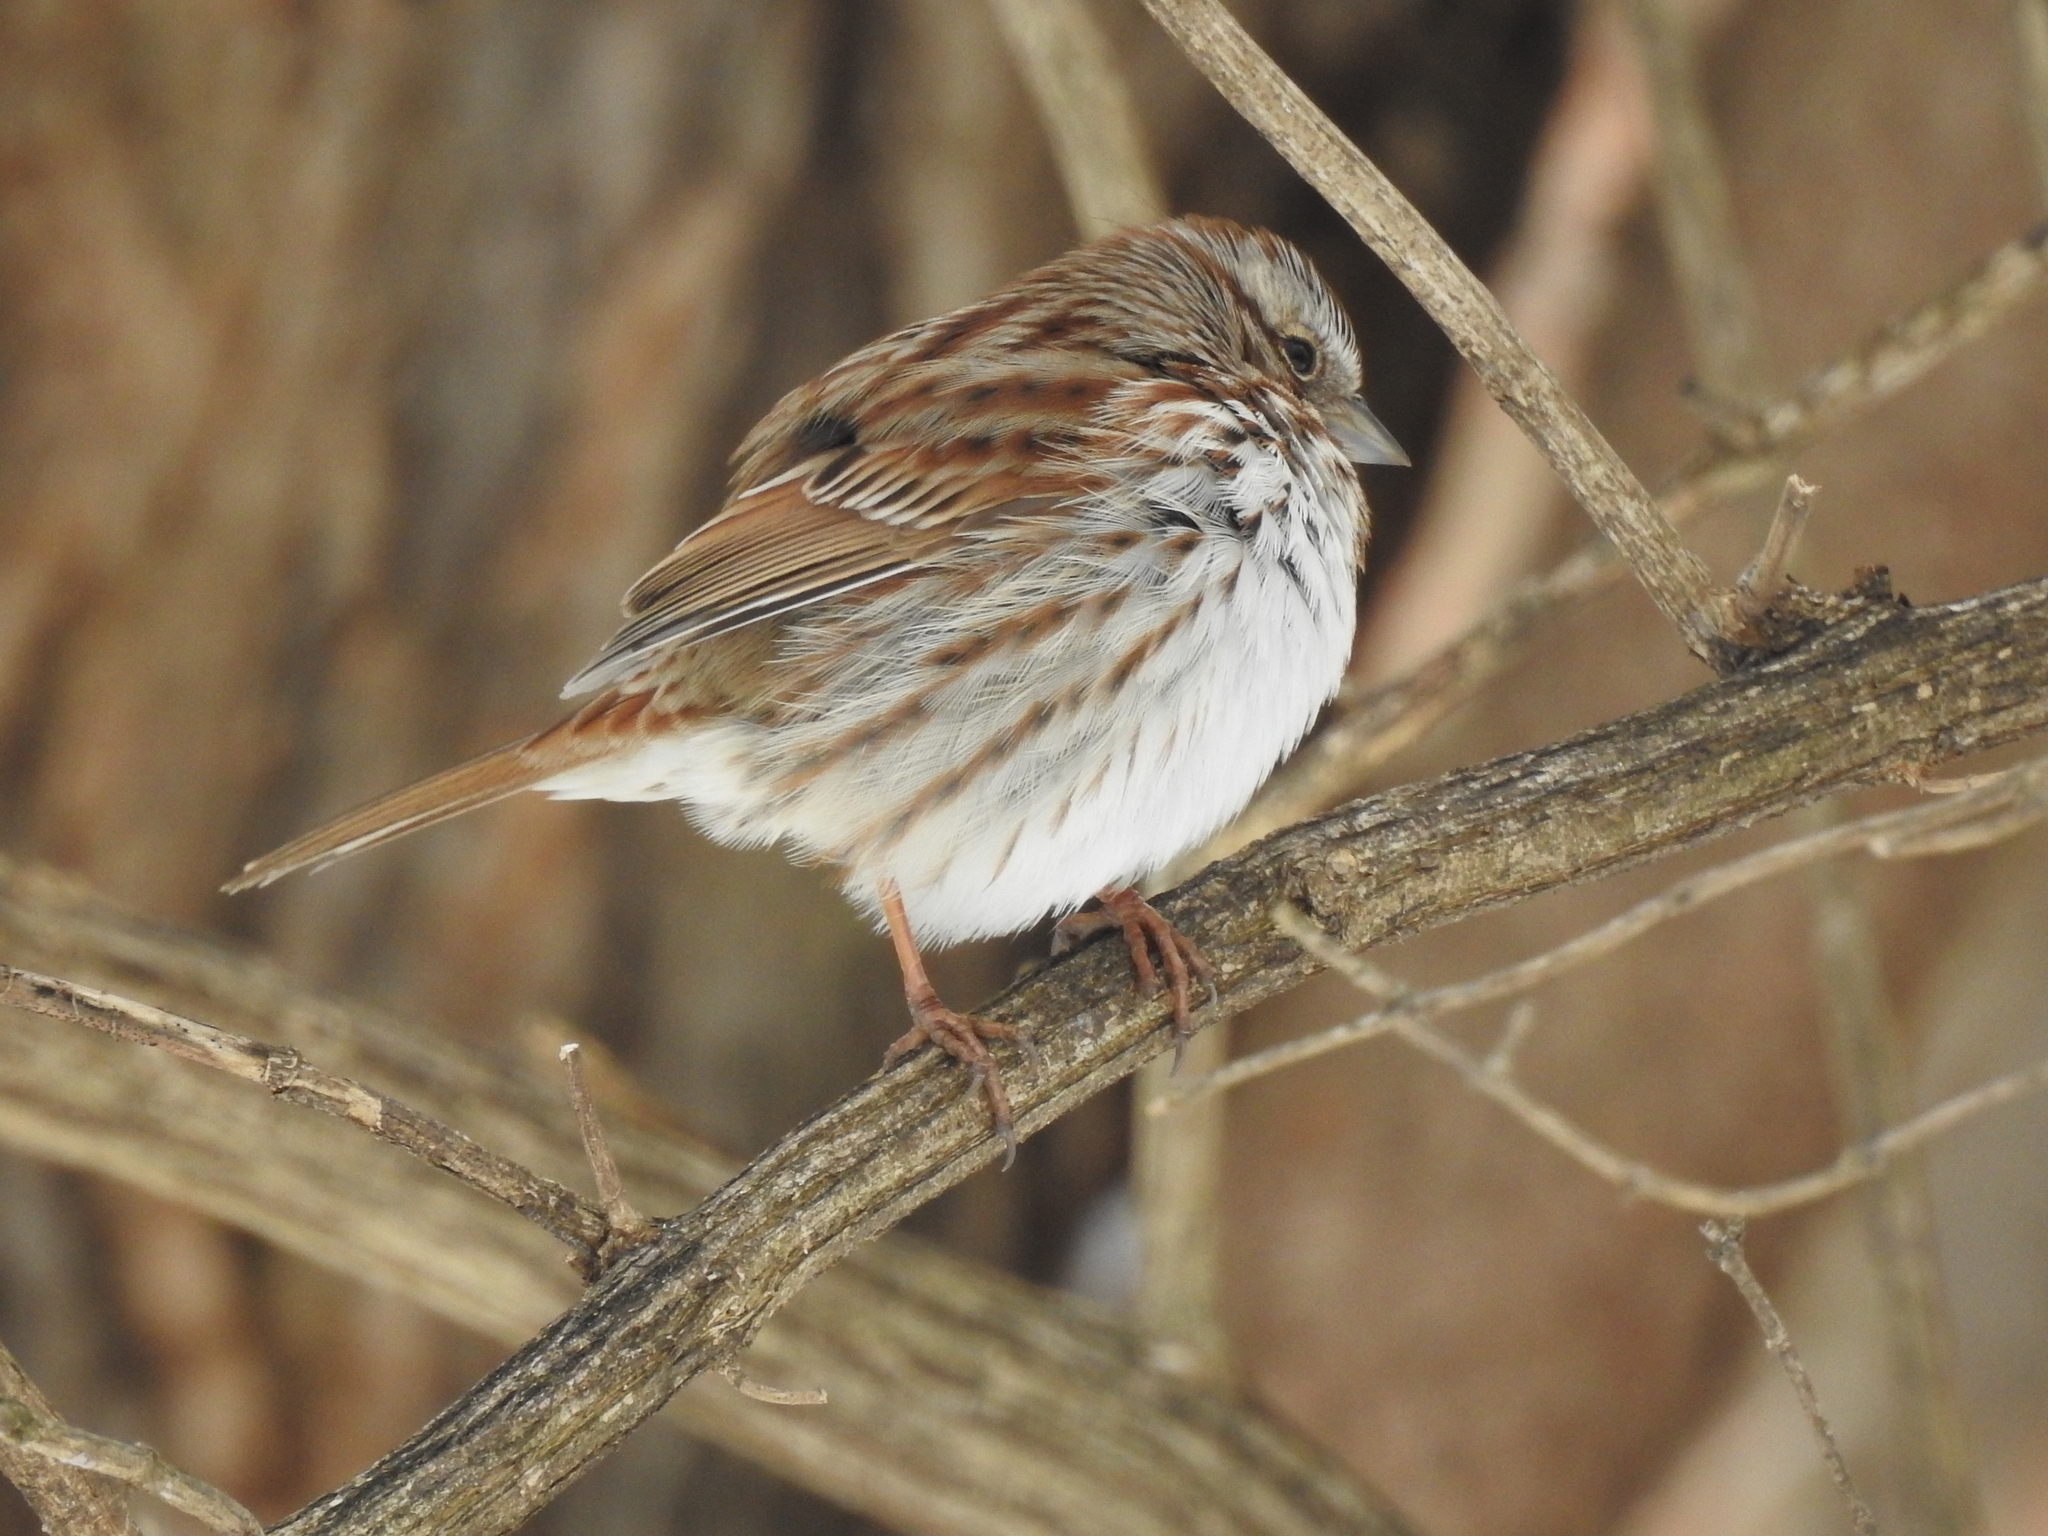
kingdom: Animalia
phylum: Chordata
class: Aves
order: Passeriformes
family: Passerellidae
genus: Melospiza
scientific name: Melospiza melodia
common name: Song sparrow
